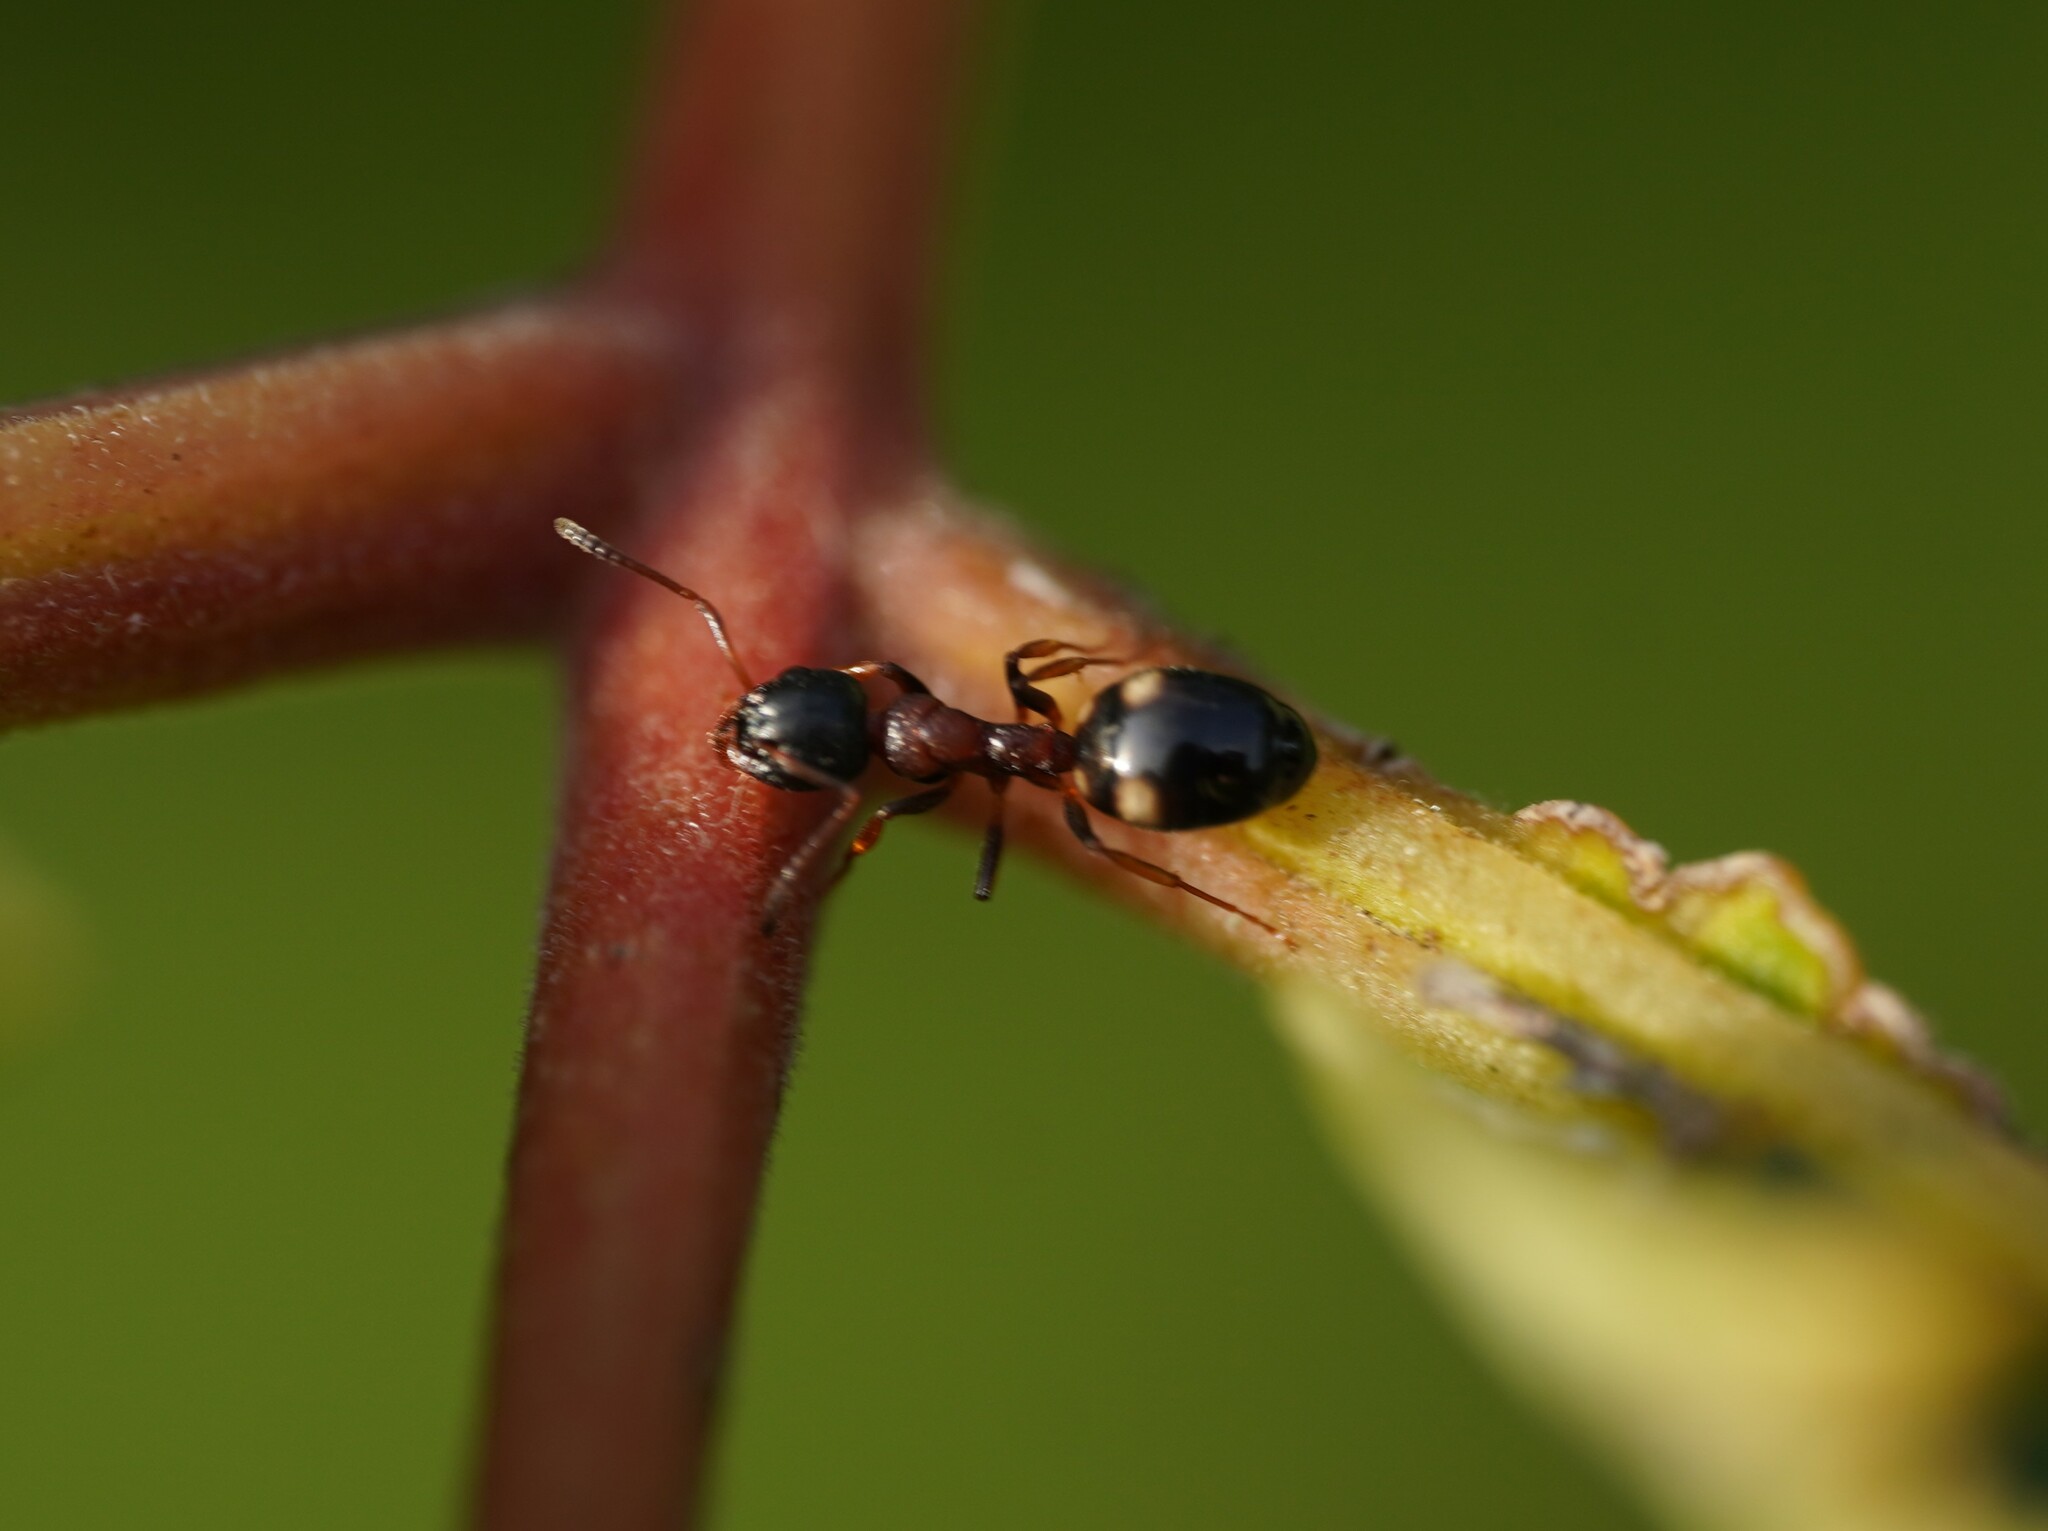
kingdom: Animalia
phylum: Arthropoda
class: Insecta
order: Hymenoptera
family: Formicidae
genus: Dolichoderus
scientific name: Dolichoderus quadripunctatus
